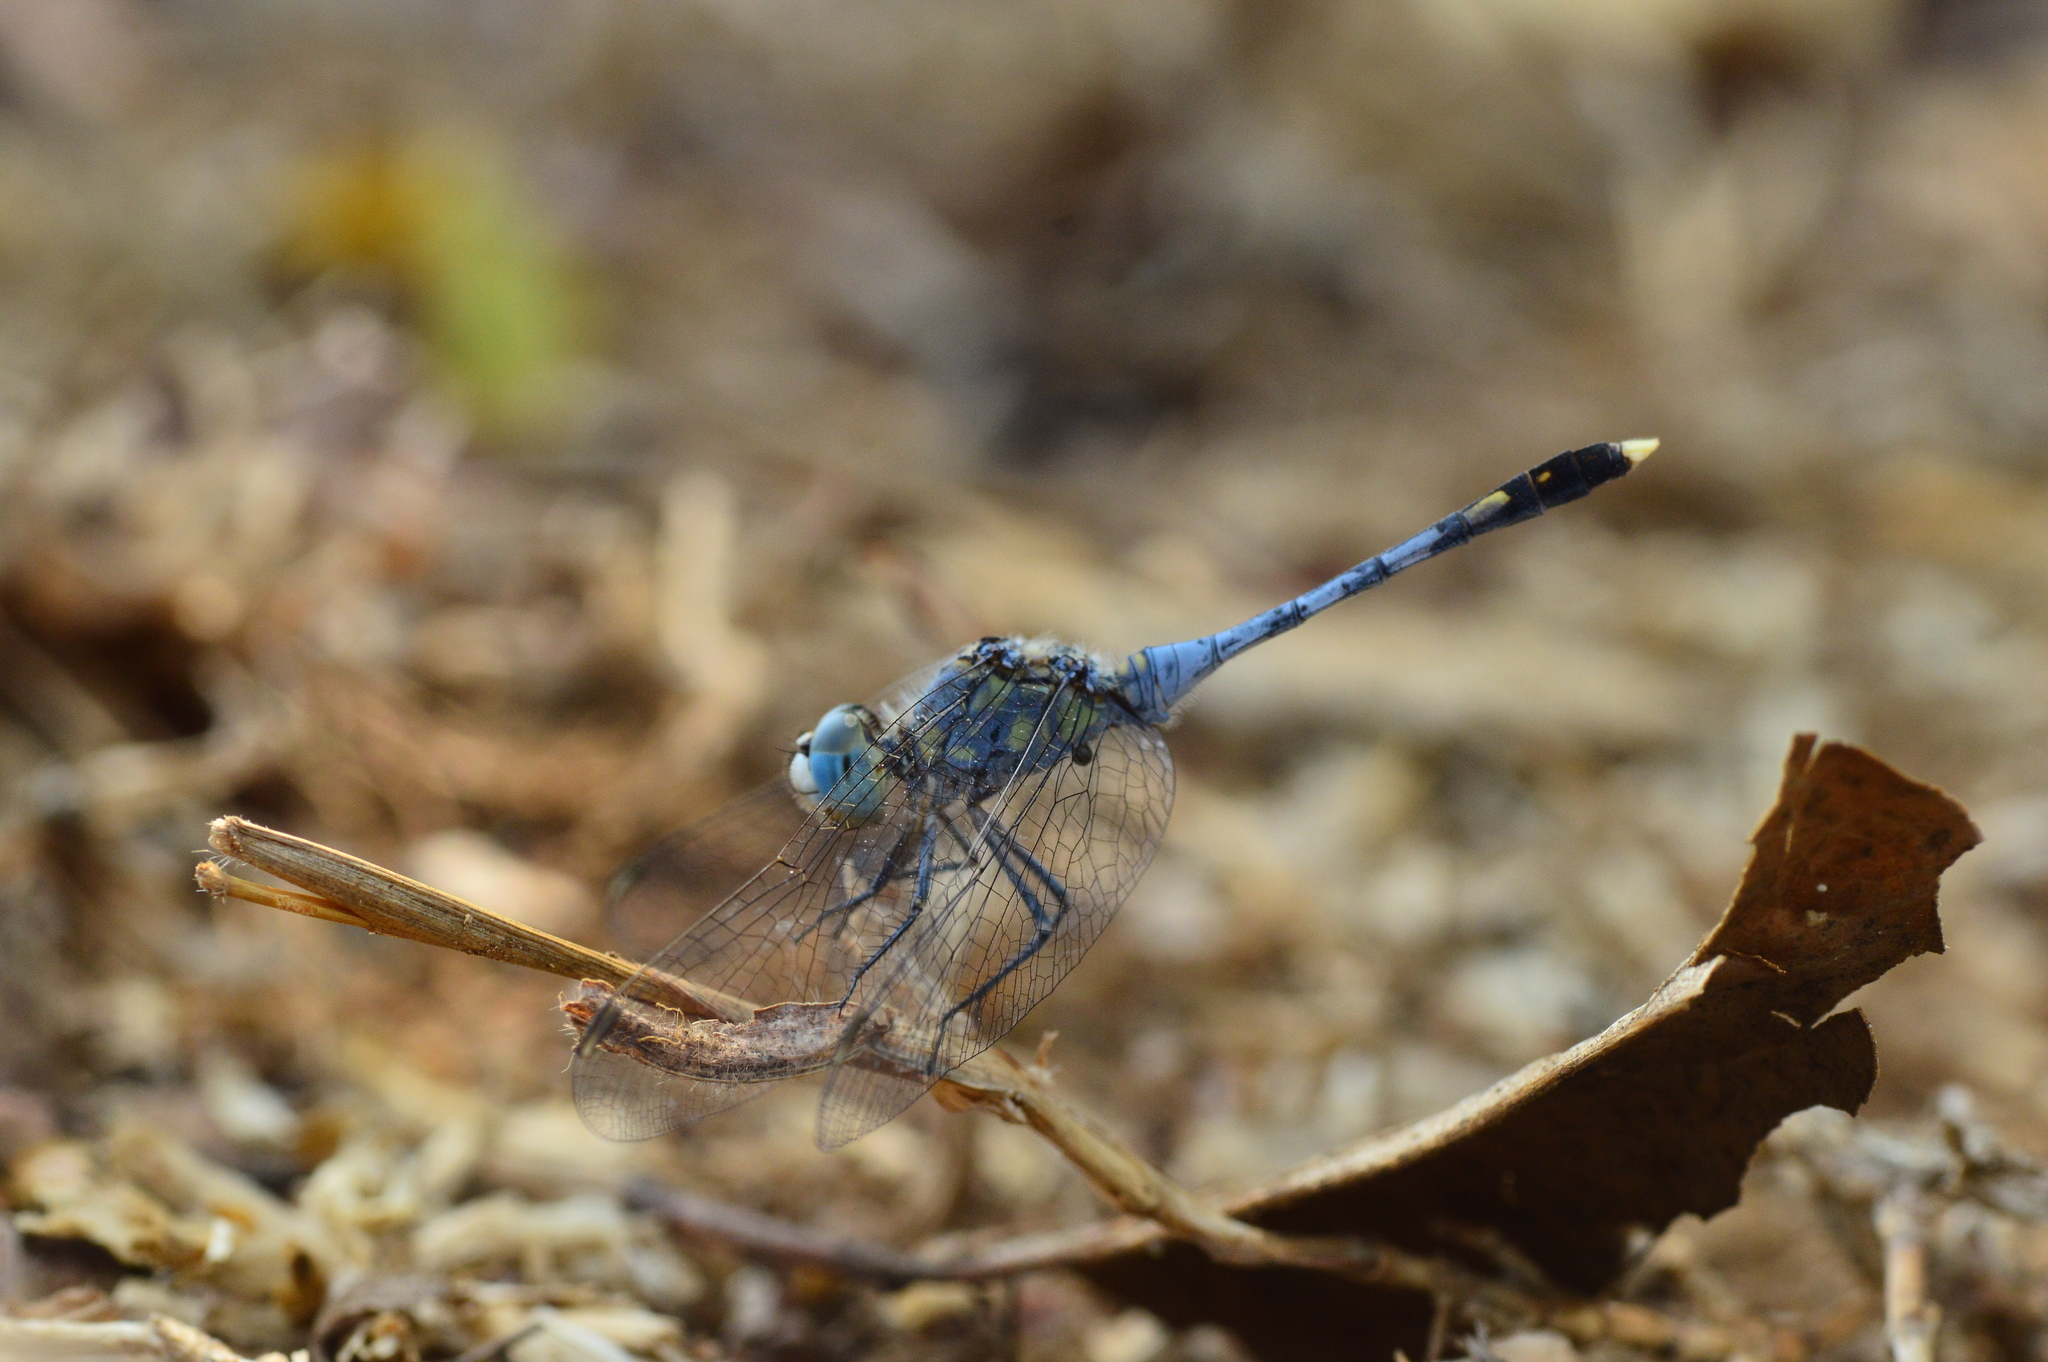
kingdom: Animalia
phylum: Arthropoda
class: Insecta
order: Odonata
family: Libellulidae
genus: Diplacodes
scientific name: Diplacodes trivialis
